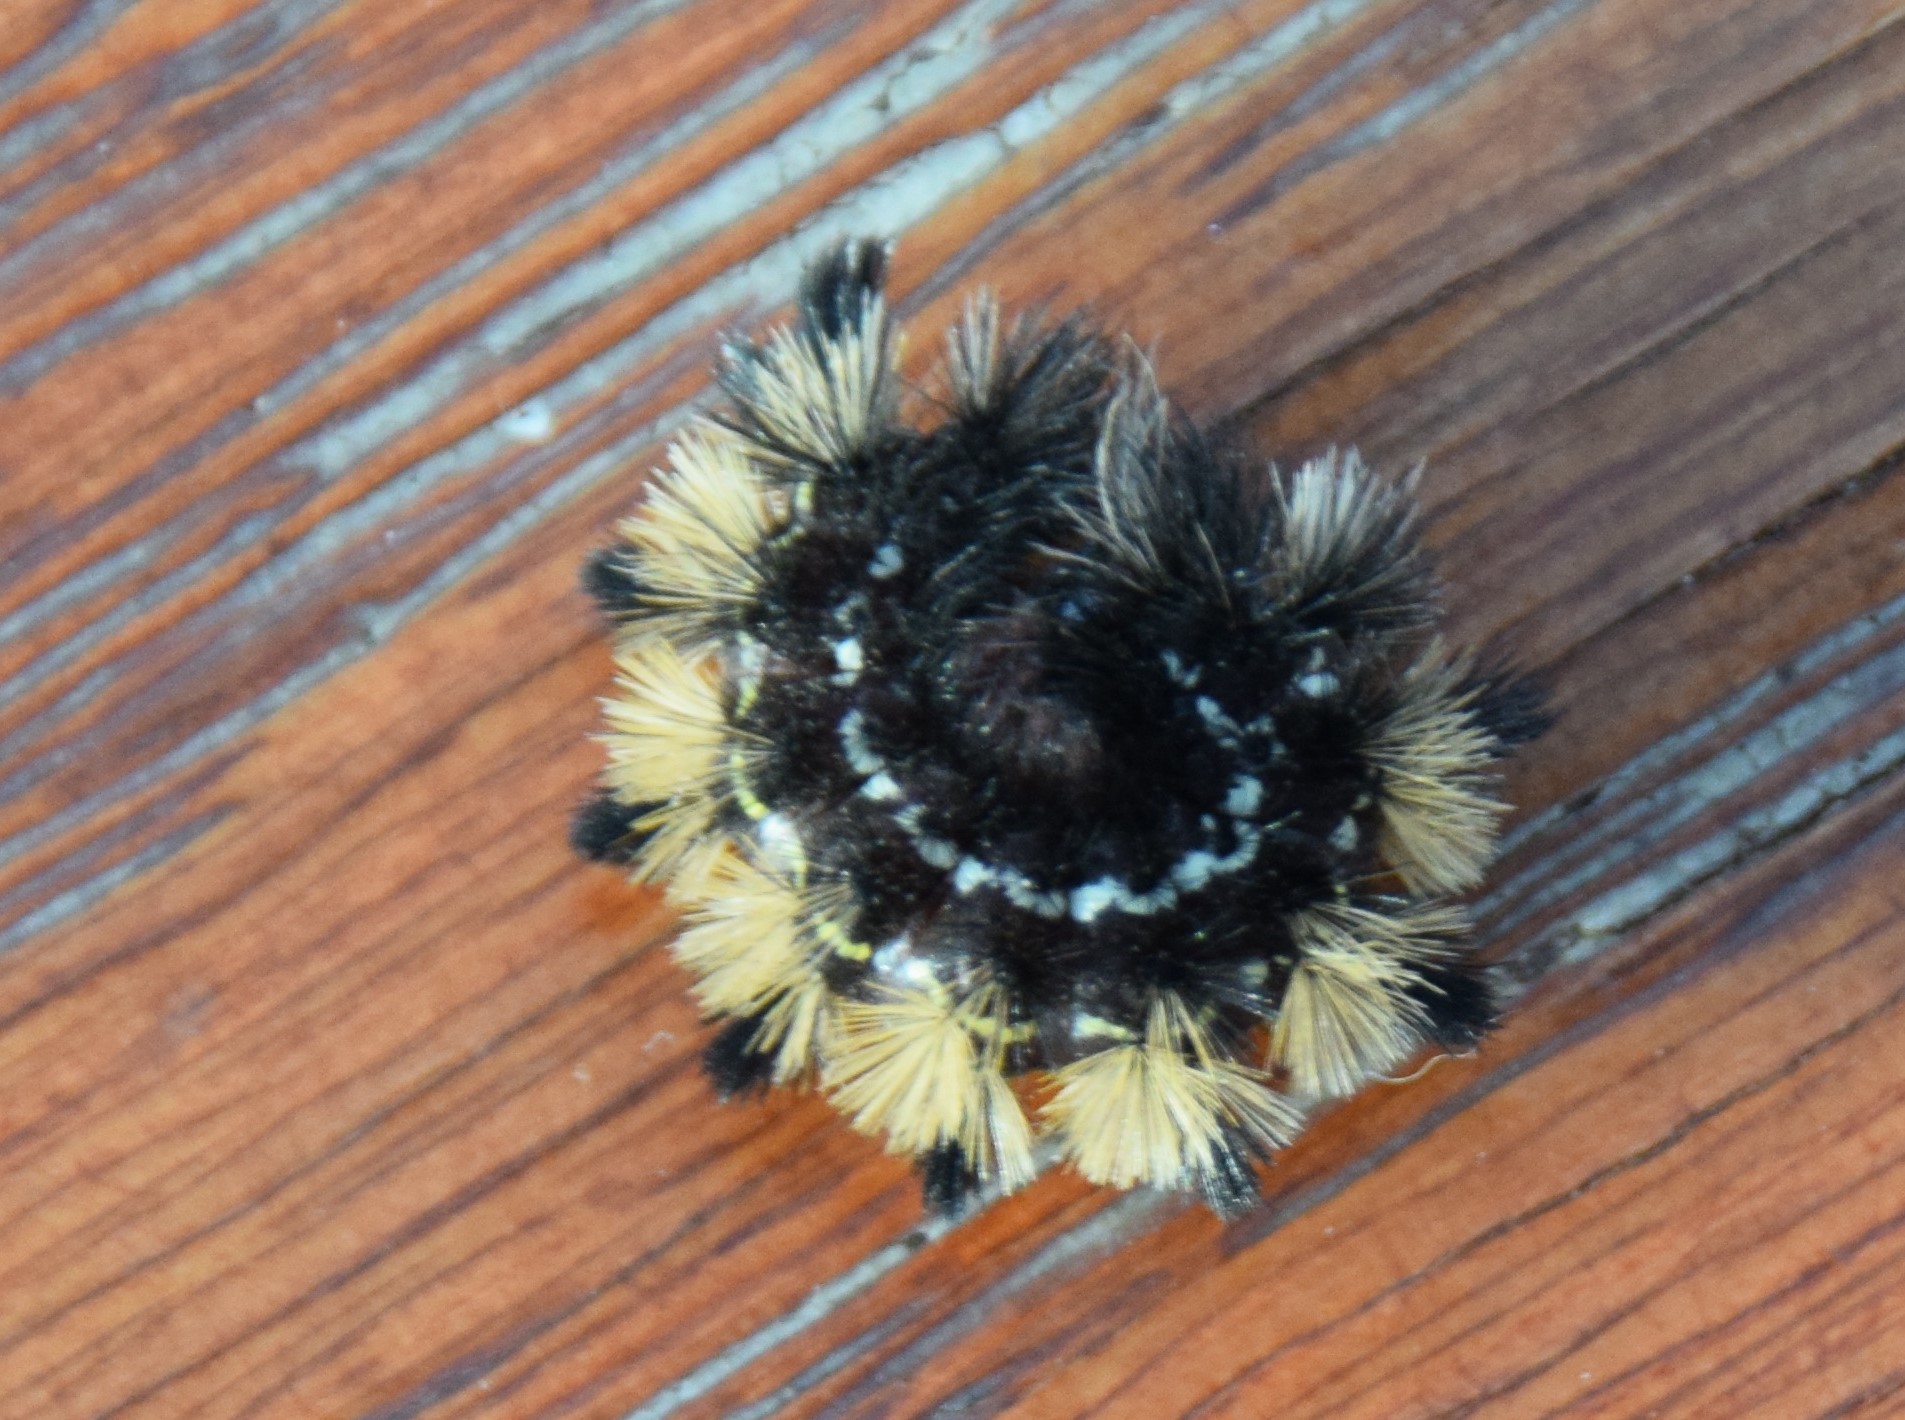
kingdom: Animalia
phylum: Arthropoda
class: Insecta
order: Lepidoptera
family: Erebidae
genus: Ctenucha
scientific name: Ctenucha virginica
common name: Virginia ctenucha moth
